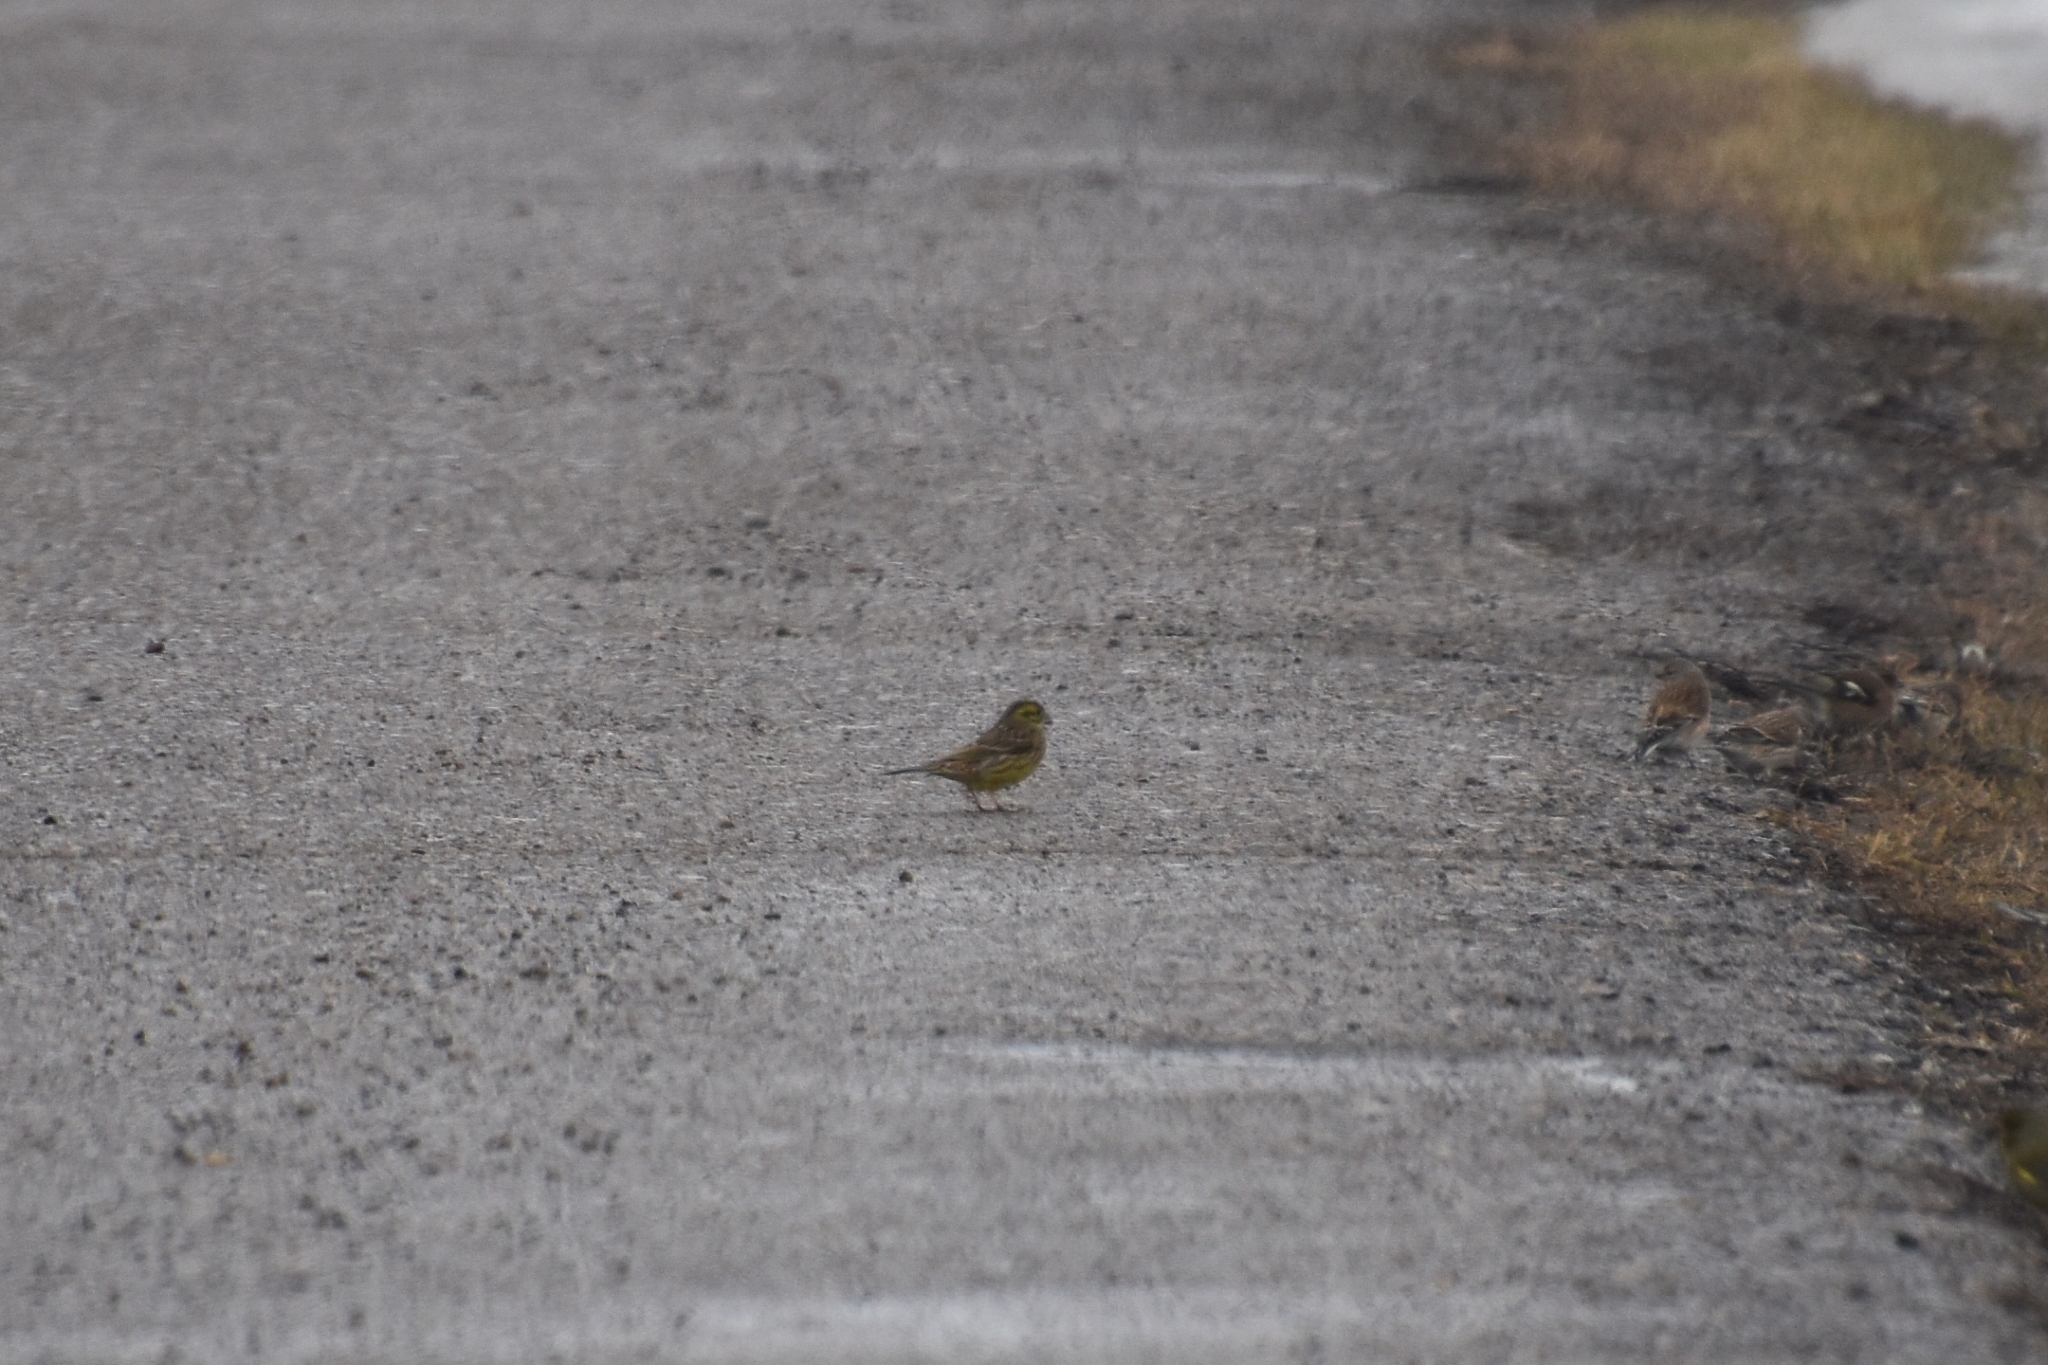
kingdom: Animalia
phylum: Chordata
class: Aves
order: Passeriformes
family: Emberizidae
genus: Emberiza
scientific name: Emberiza citrinella
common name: Yellowhammer
